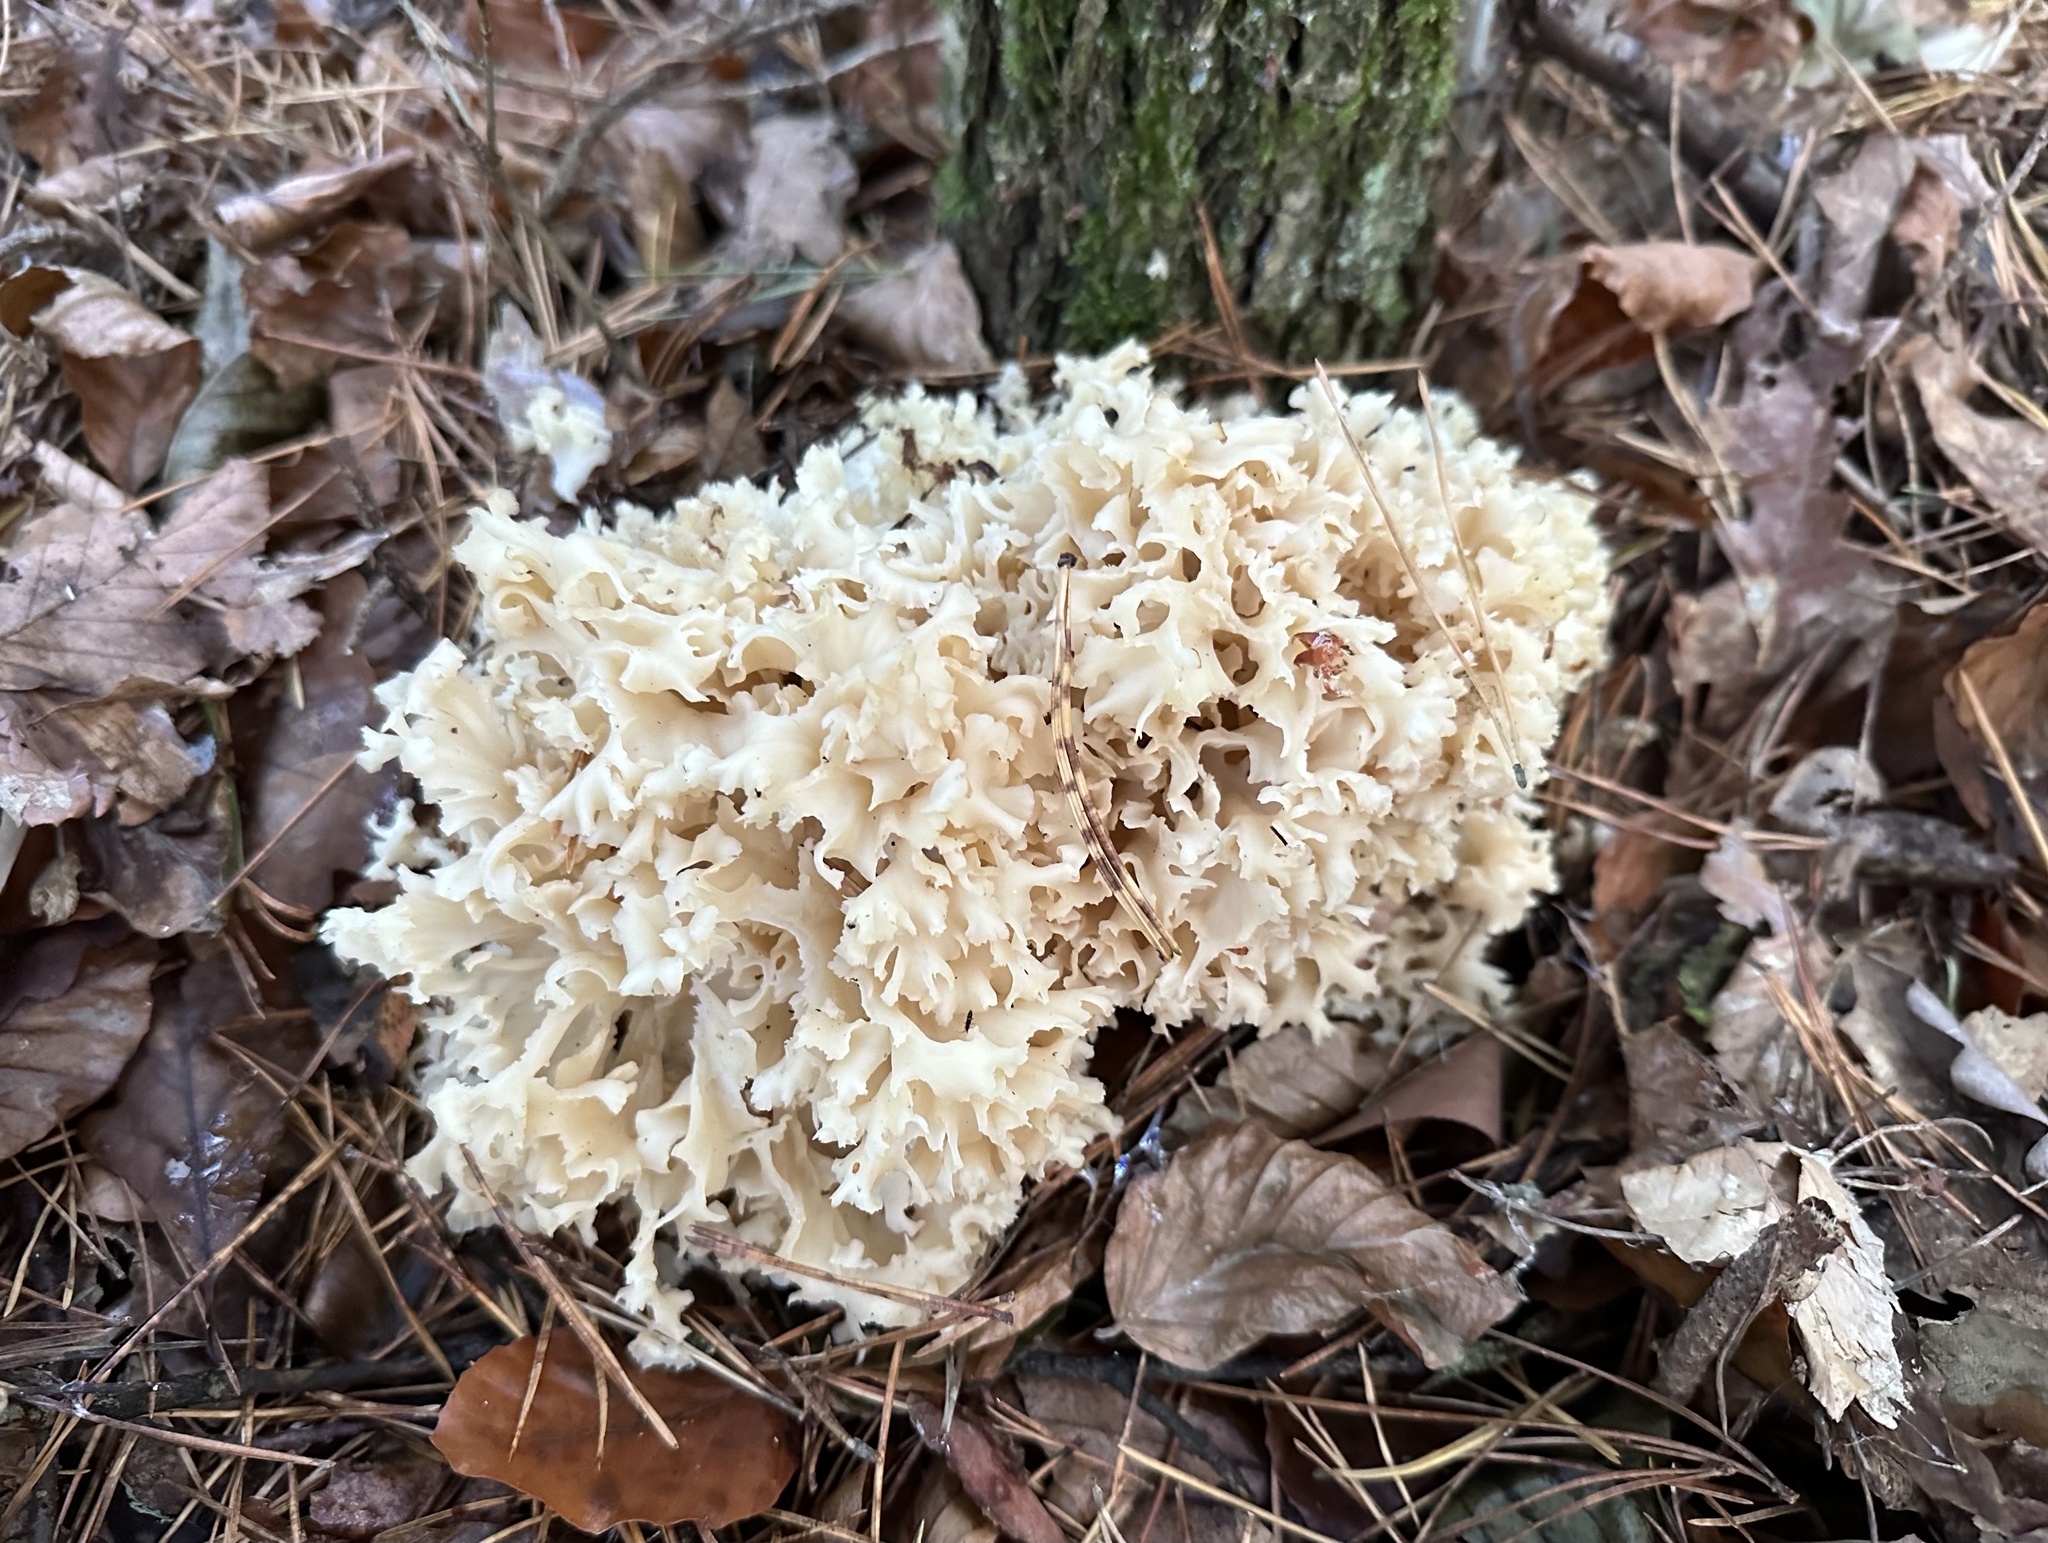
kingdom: Fungi
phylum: Basidiomycota
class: Agaricomycetes
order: Polyporales
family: Sparassidaceae
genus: Sparassis
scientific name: Sparassis crispa
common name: Brain fungus
